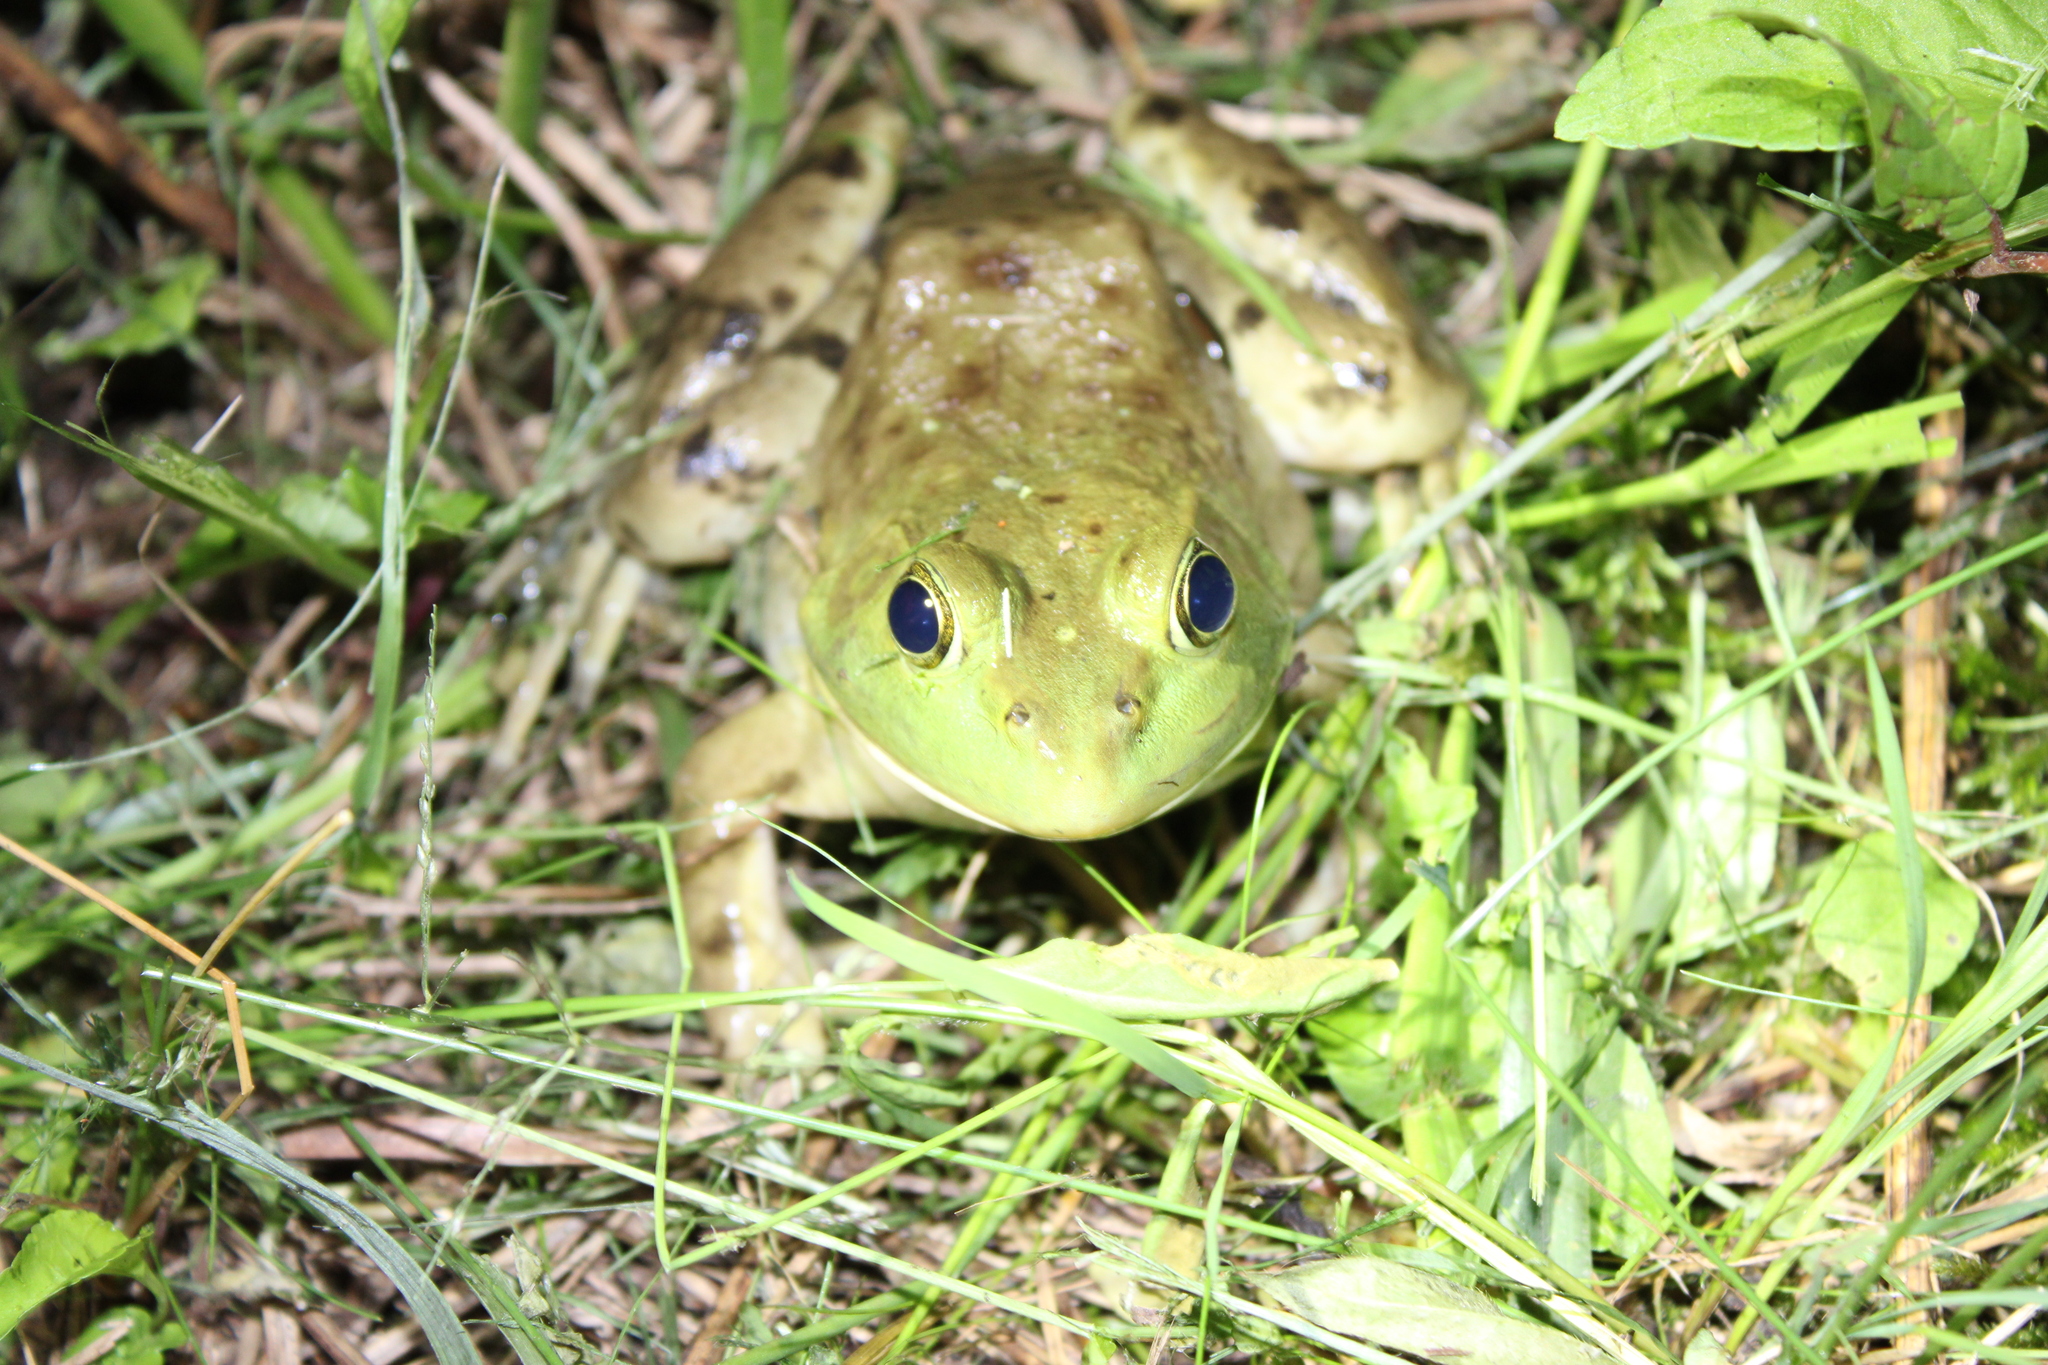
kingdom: Animalia
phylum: Chordata
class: Amphibia
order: Anura
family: Ranidae
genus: Lithobates
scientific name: Lithobates catesbeianus
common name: American bullfrog
